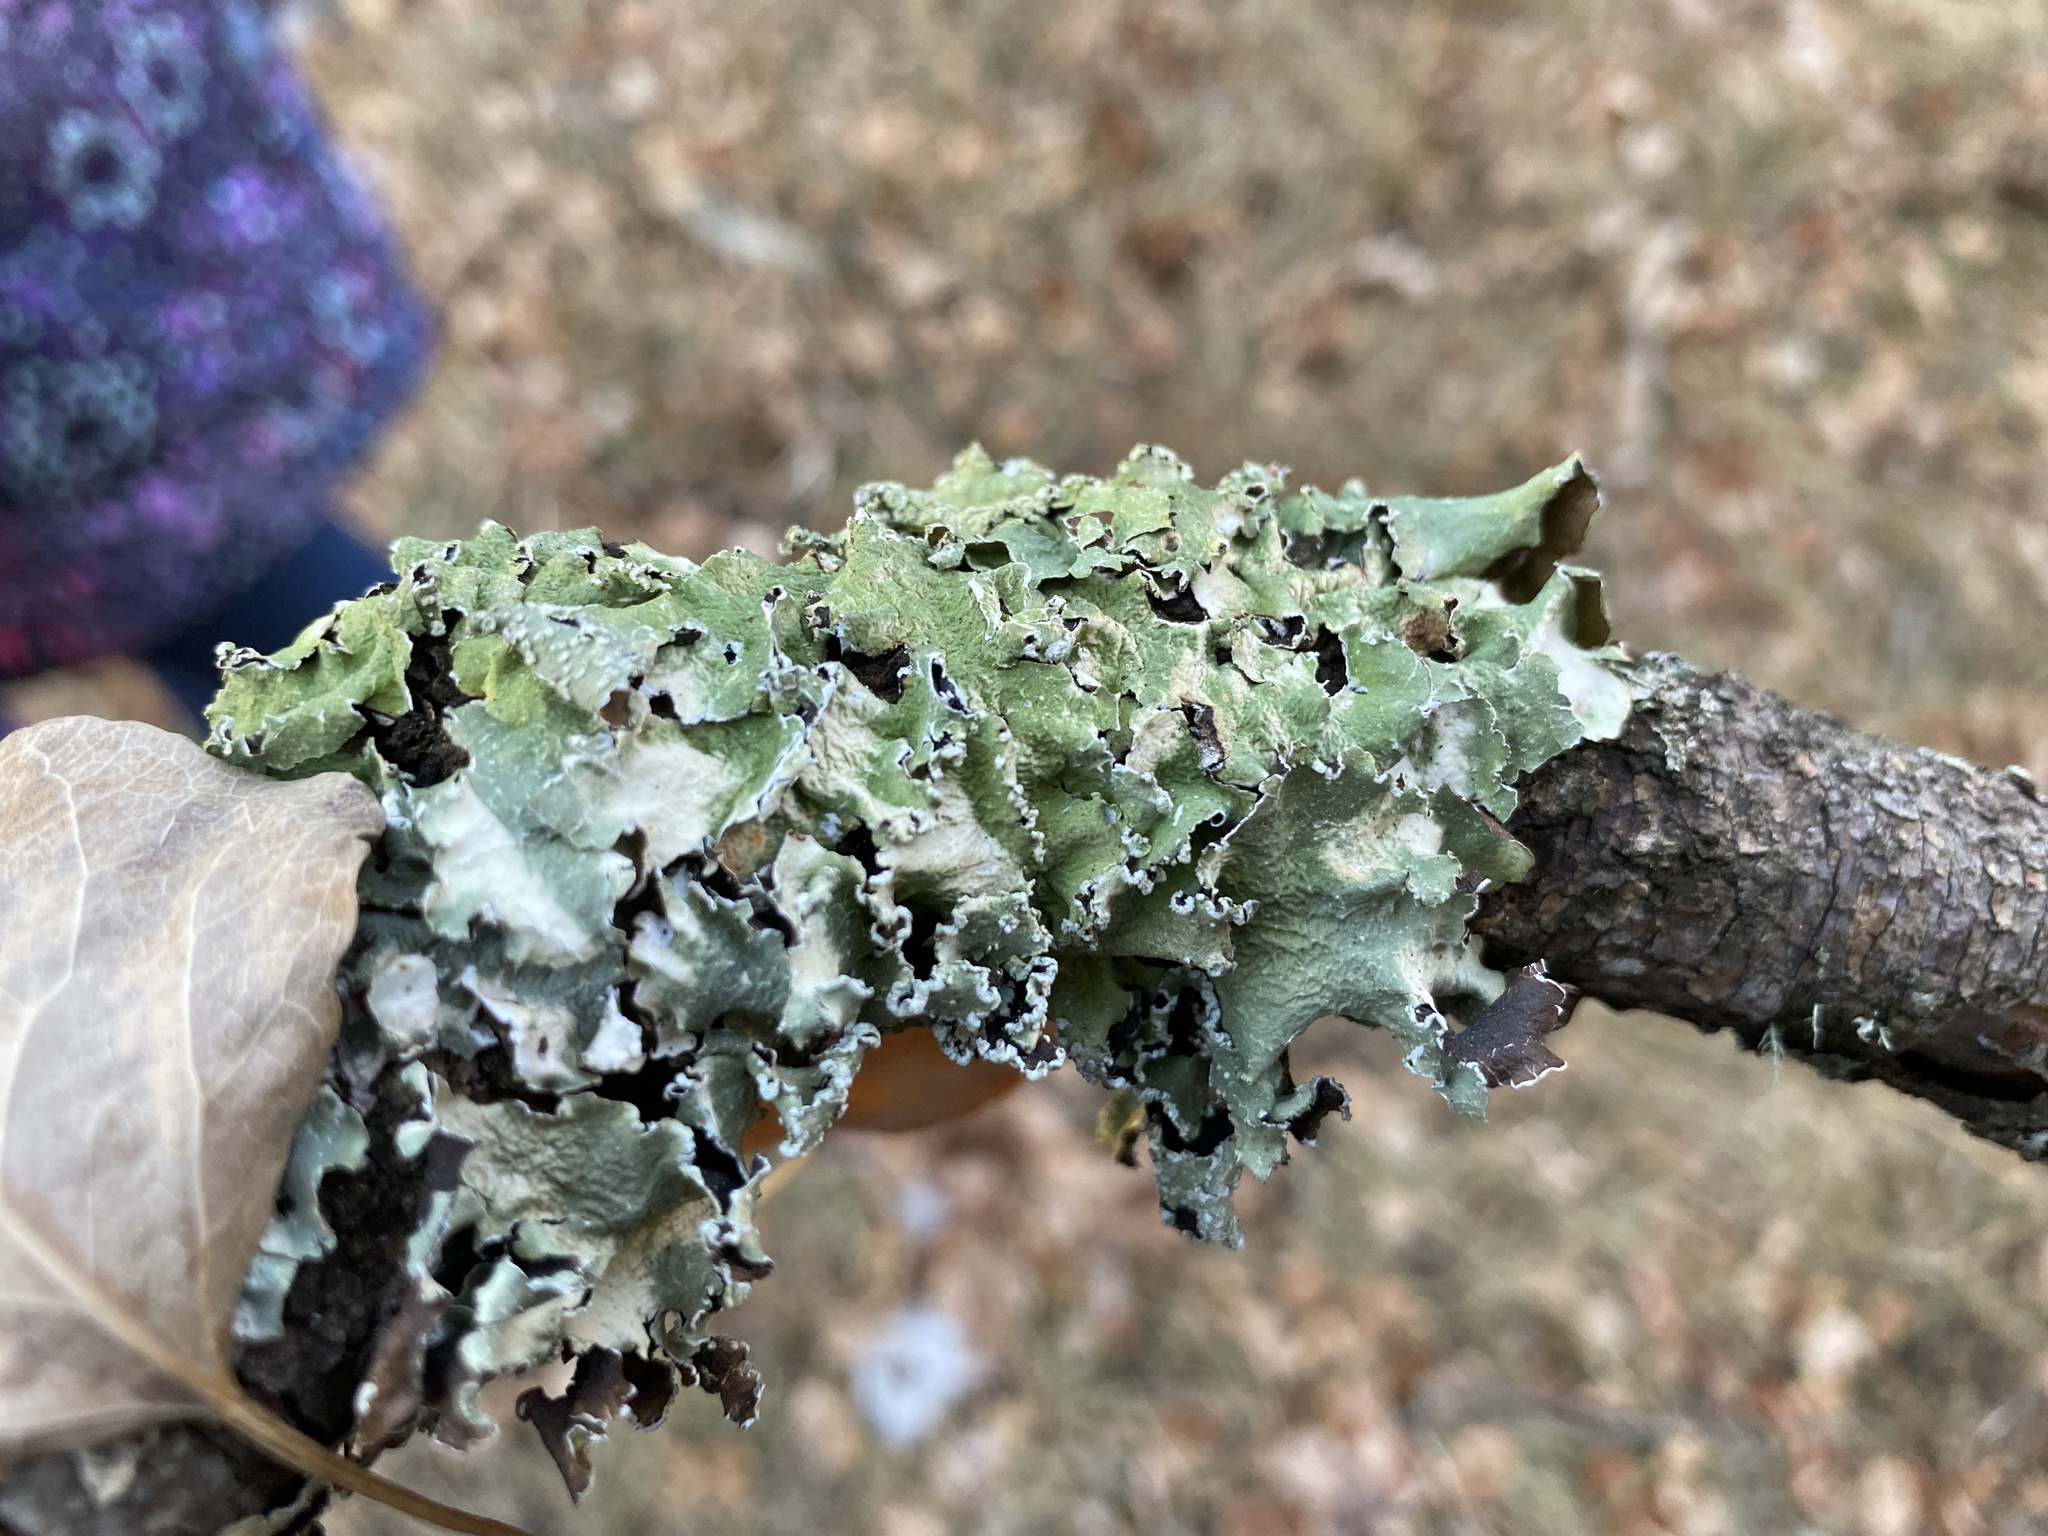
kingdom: Fungi
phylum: Ascomycota
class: Lecanoromycetes
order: Lecanorales
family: Parmeliaceae
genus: Flavopunctelia
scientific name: Flavopunctelia flaventior
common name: Speckled greenshield
